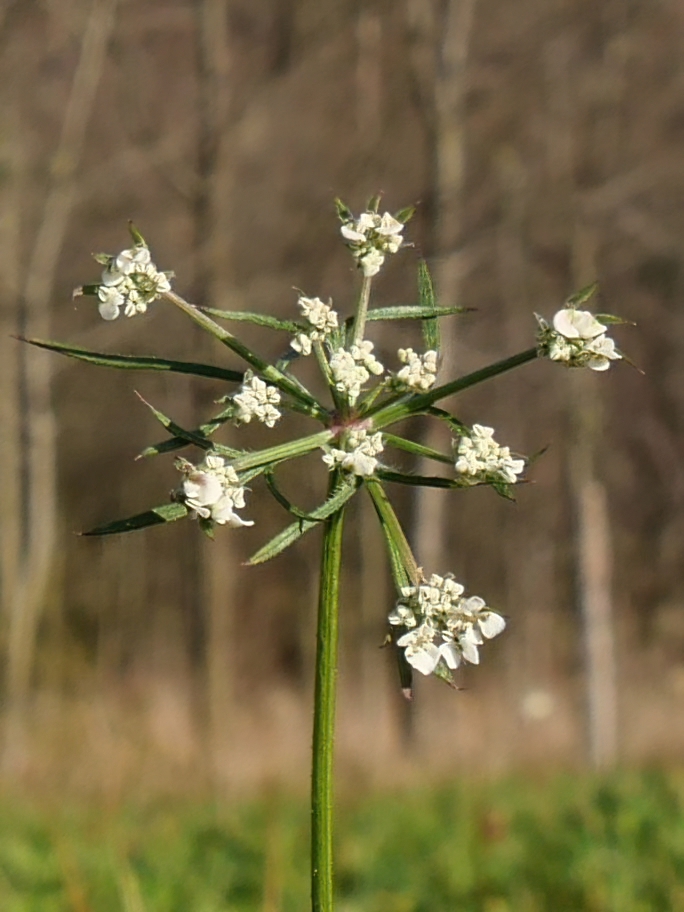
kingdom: Plantae
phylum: Tracheophyta
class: Magnoliopsida
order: Apiales
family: Apiaceae
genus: Daucus
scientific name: Daucus carota
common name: Wild carrot
